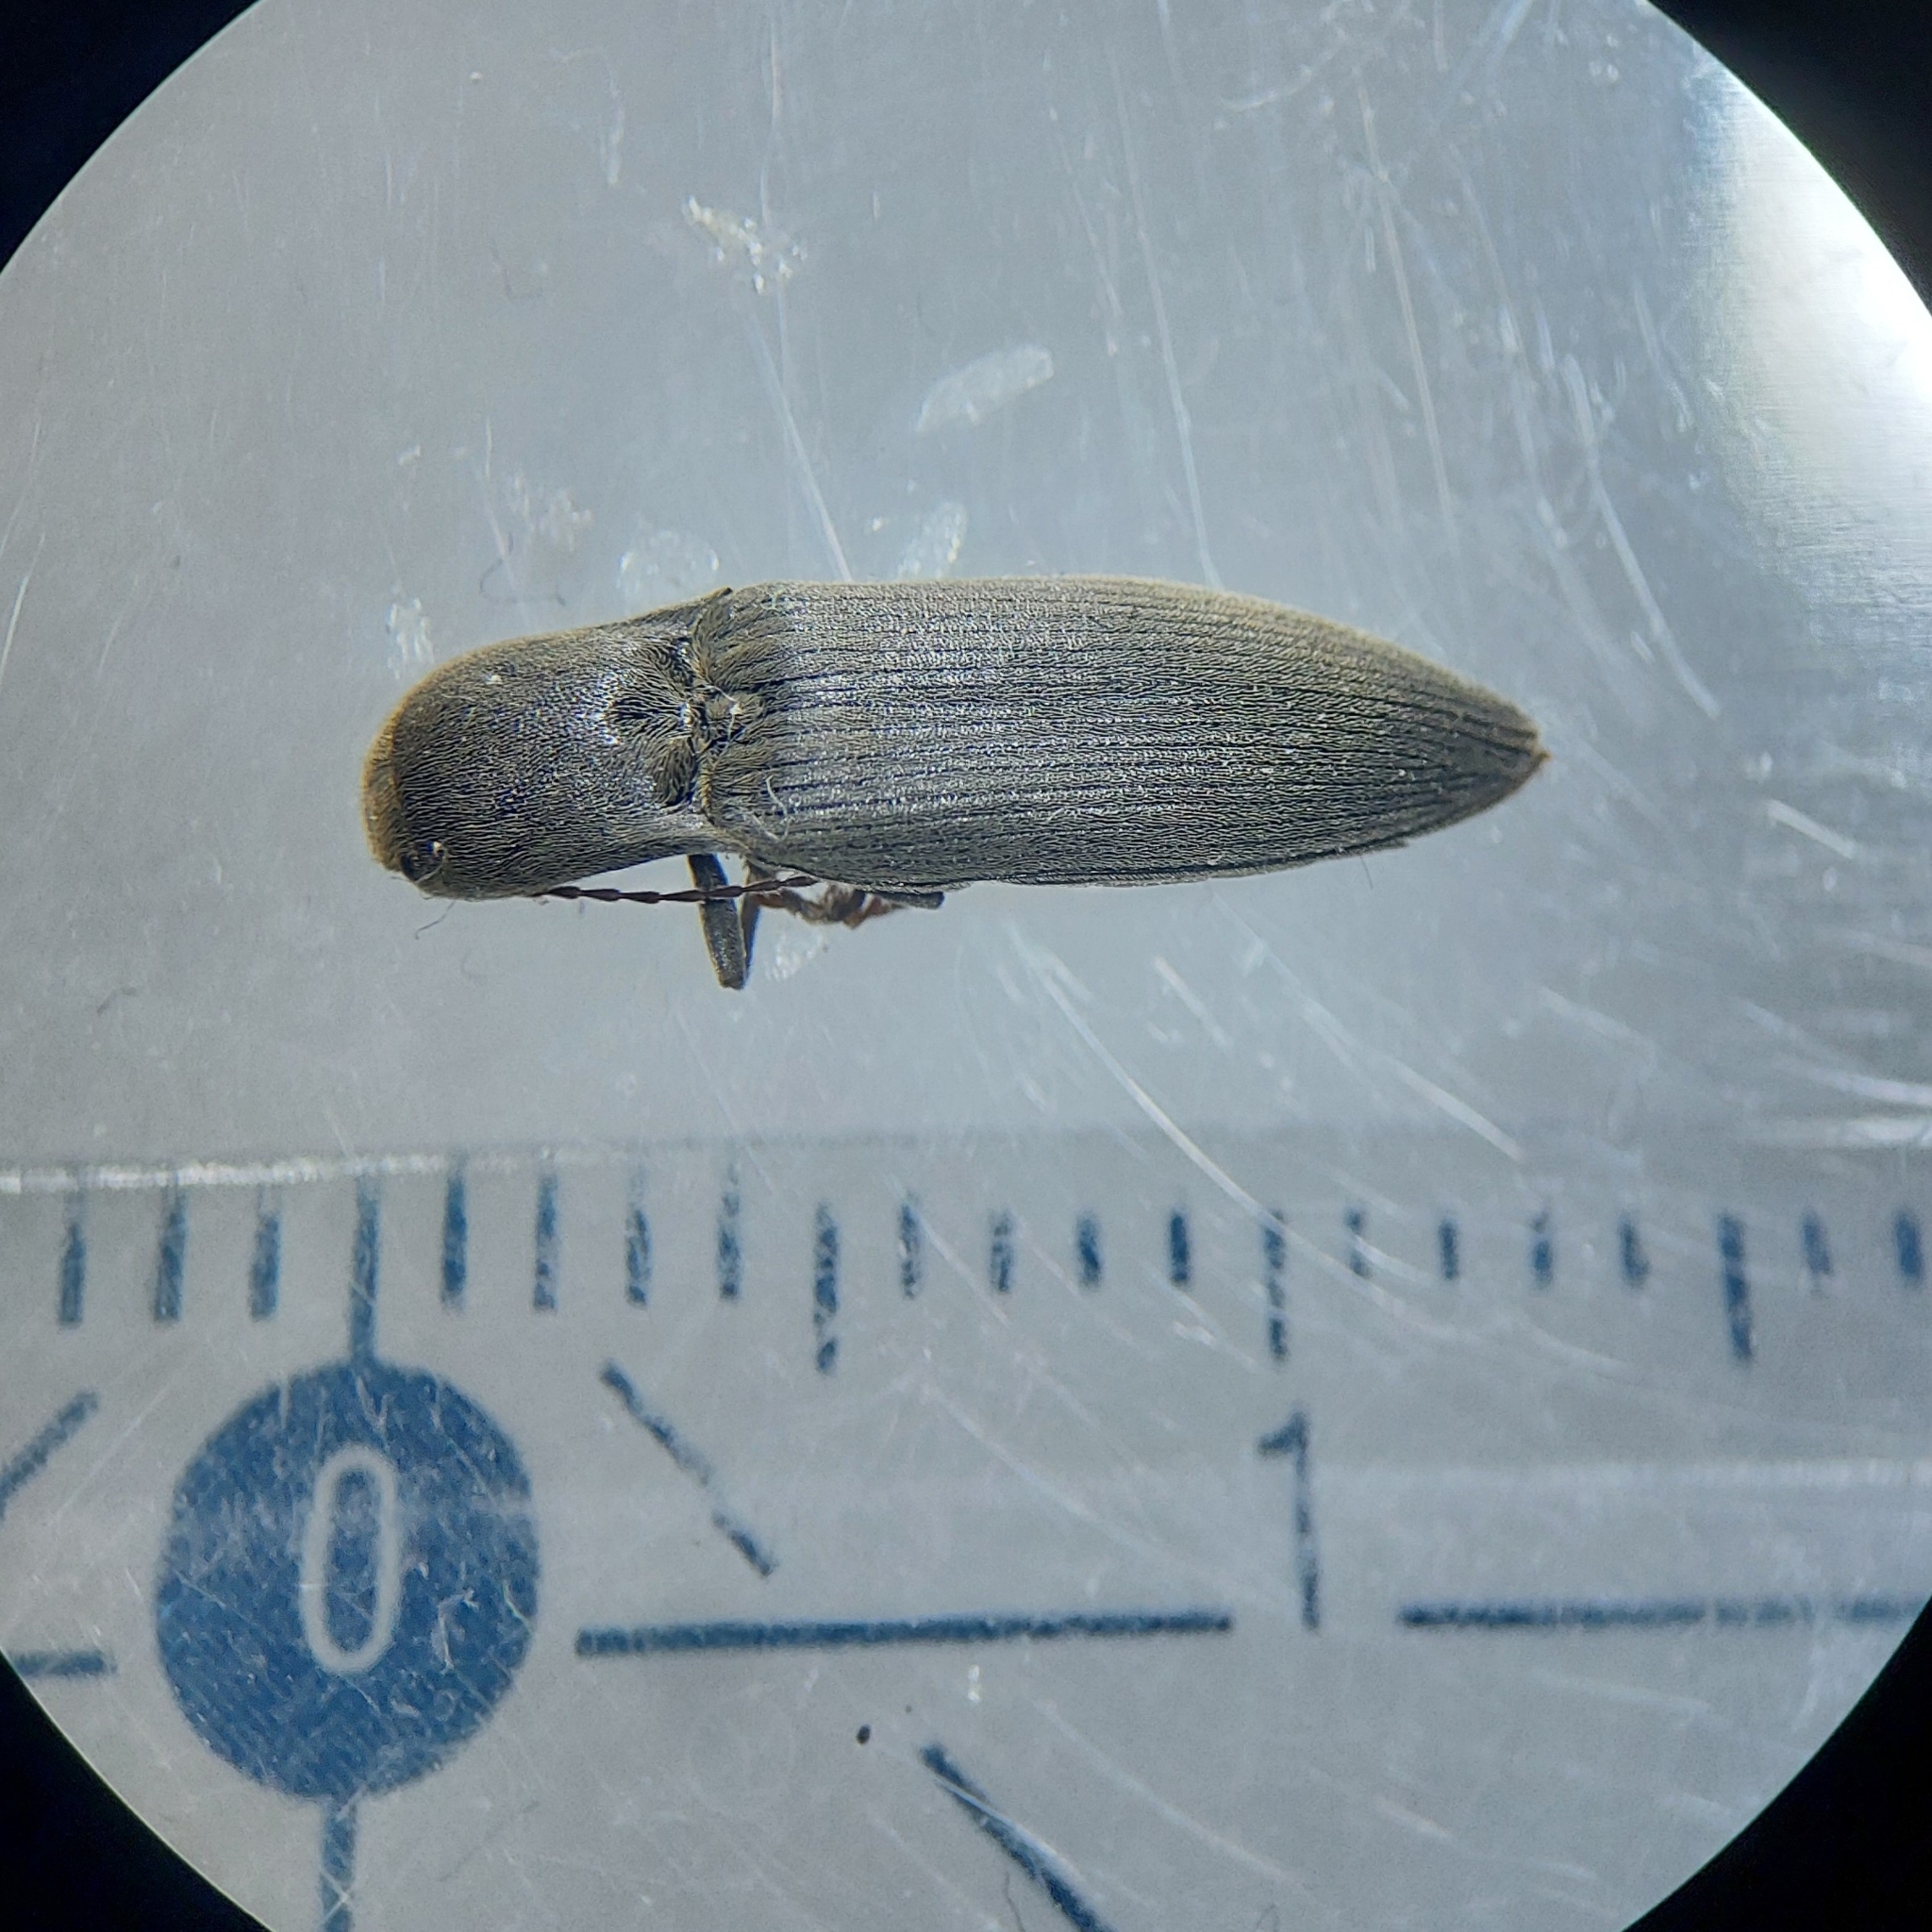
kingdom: Animalia
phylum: Arthropoda
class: Insecta
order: Coleoptera
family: Elateridae
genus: Agriotes
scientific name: Agriotes pilosellus
